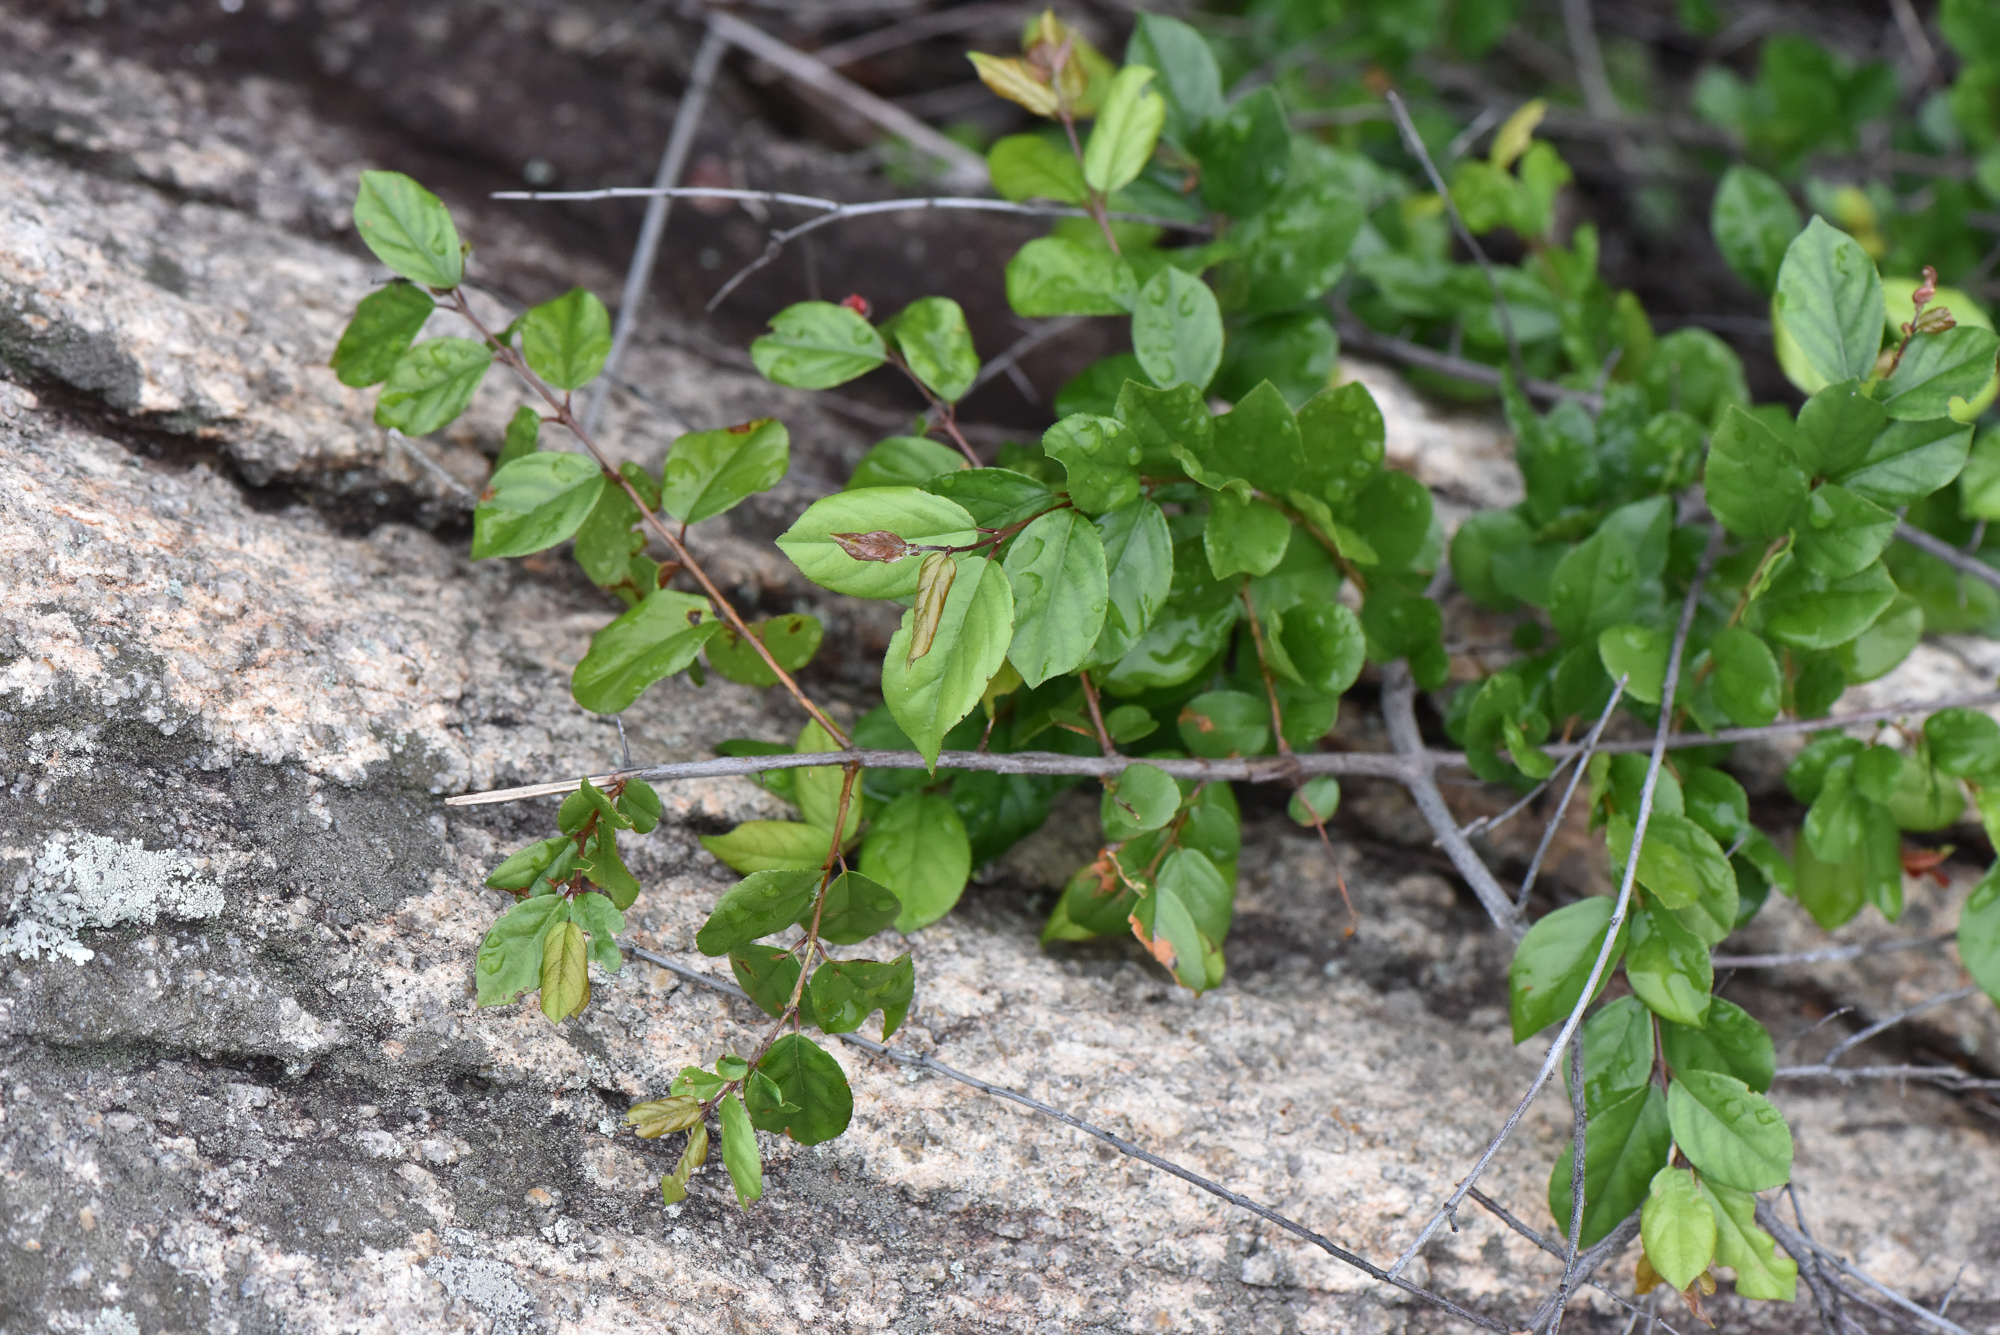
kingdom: Plantae
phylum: Tracheophyta
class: Magnoliopsida
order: Rosales
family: Rhamnaceae
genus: Sageretia
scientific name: Sageretia thea
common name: Pauper's-tea
